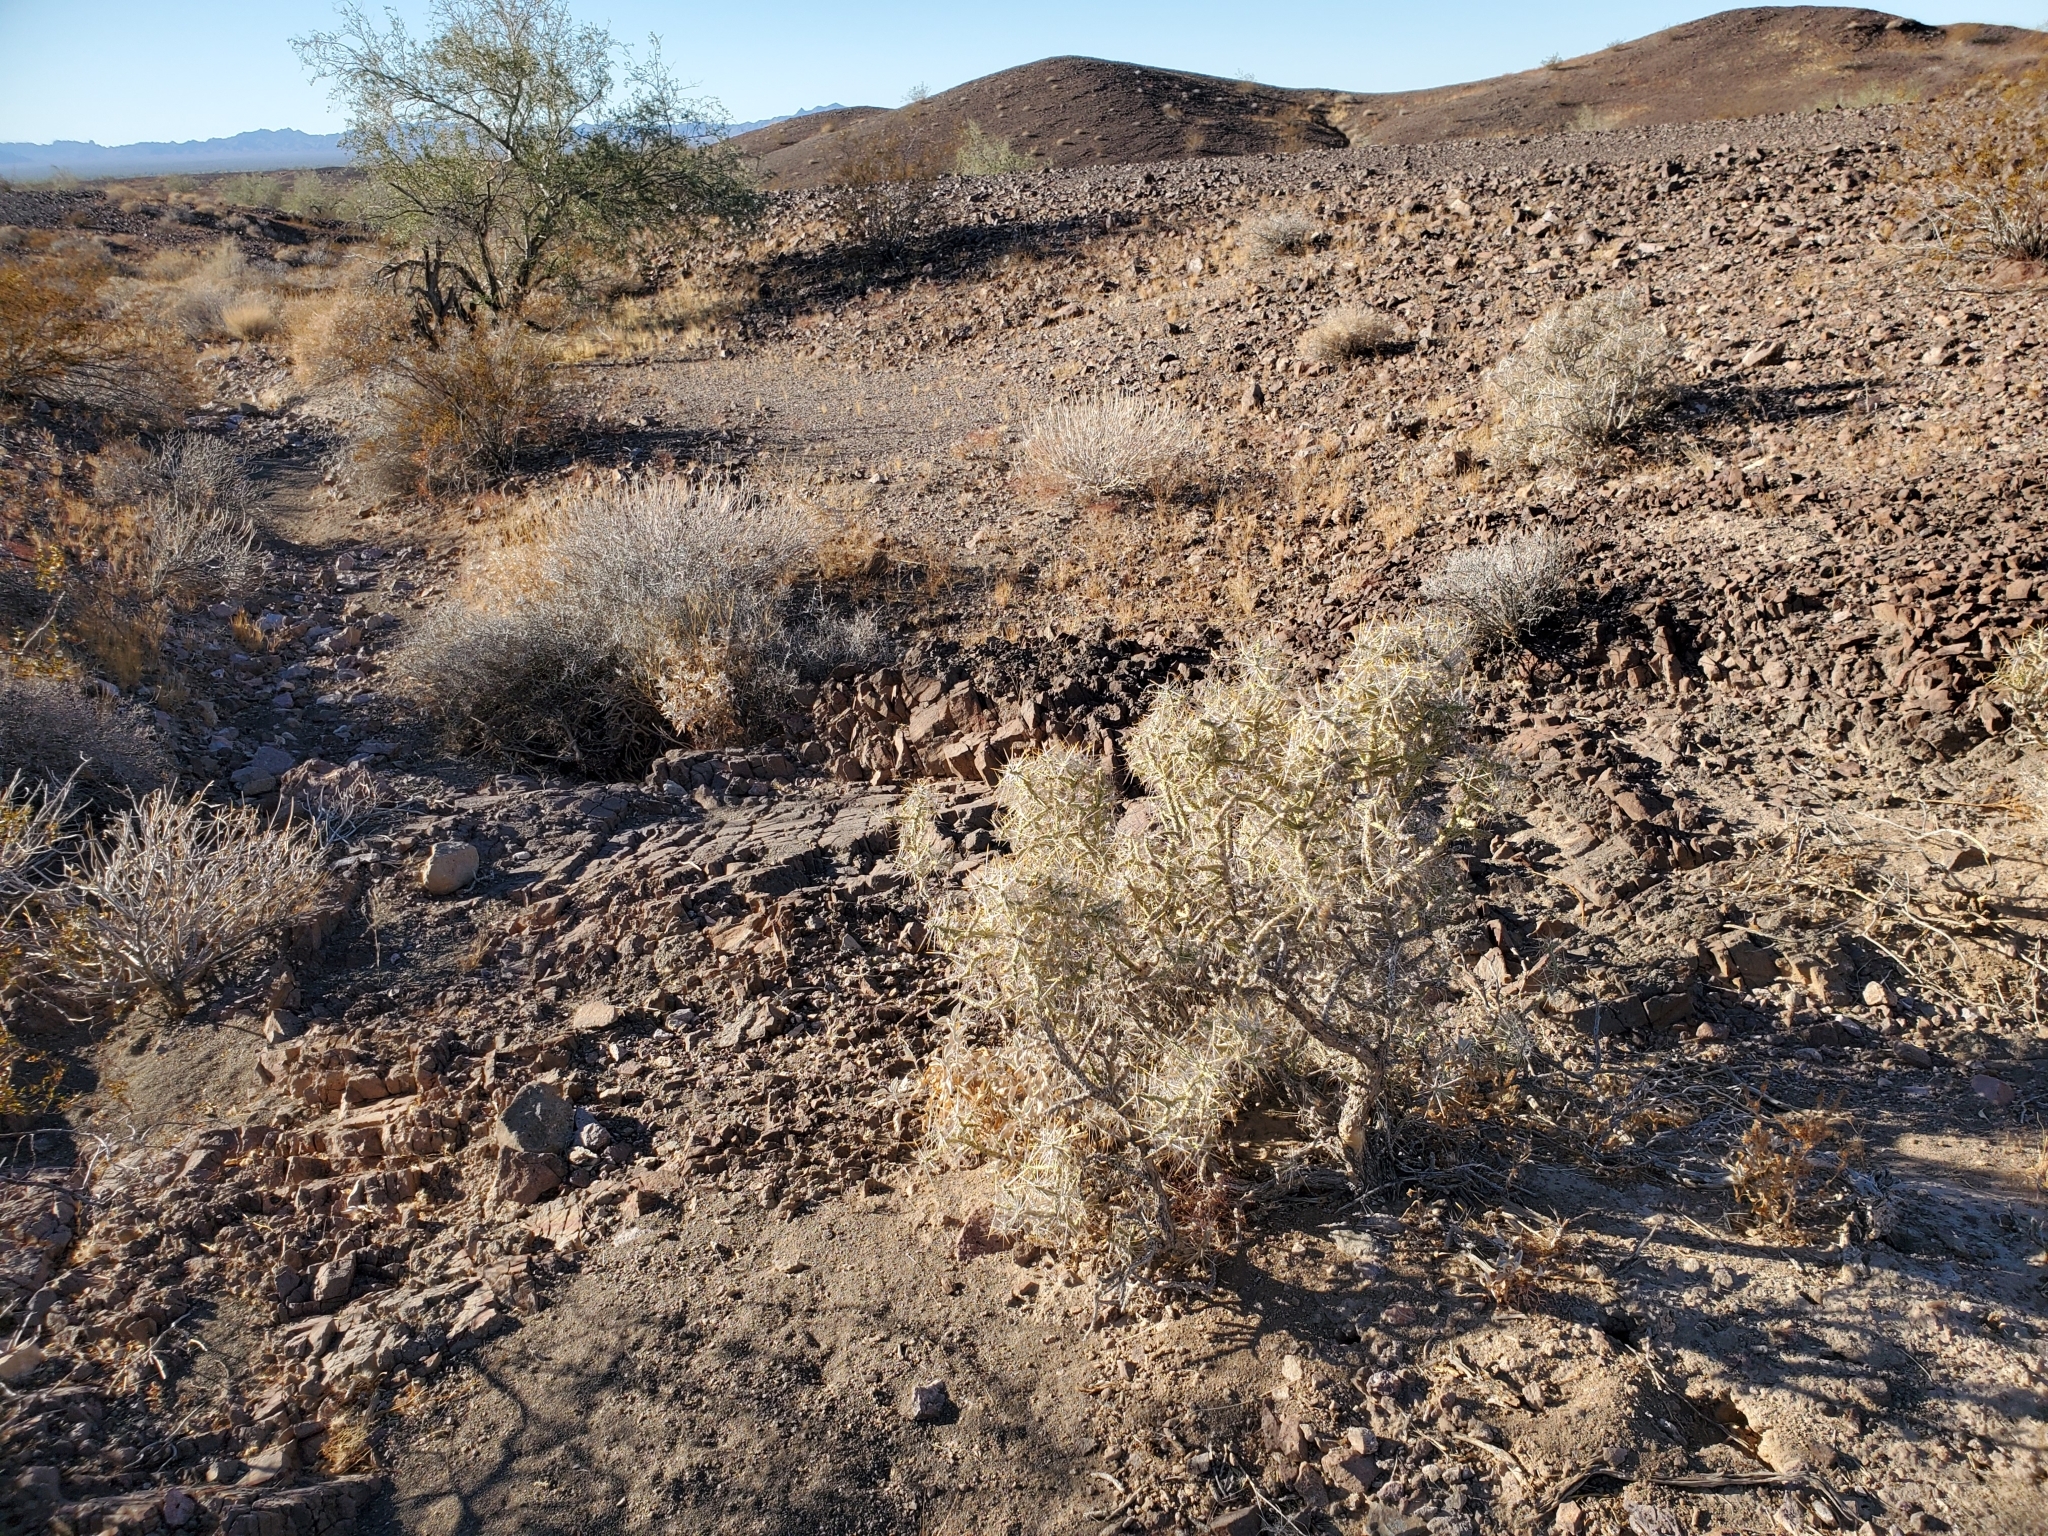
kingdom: Plantae
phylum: Tracheophyta
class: Magnoliopsida
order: Caryophyllales
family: Cactaceae
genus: Cylindropuntia
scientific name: Cylindropuntia ramosissima
